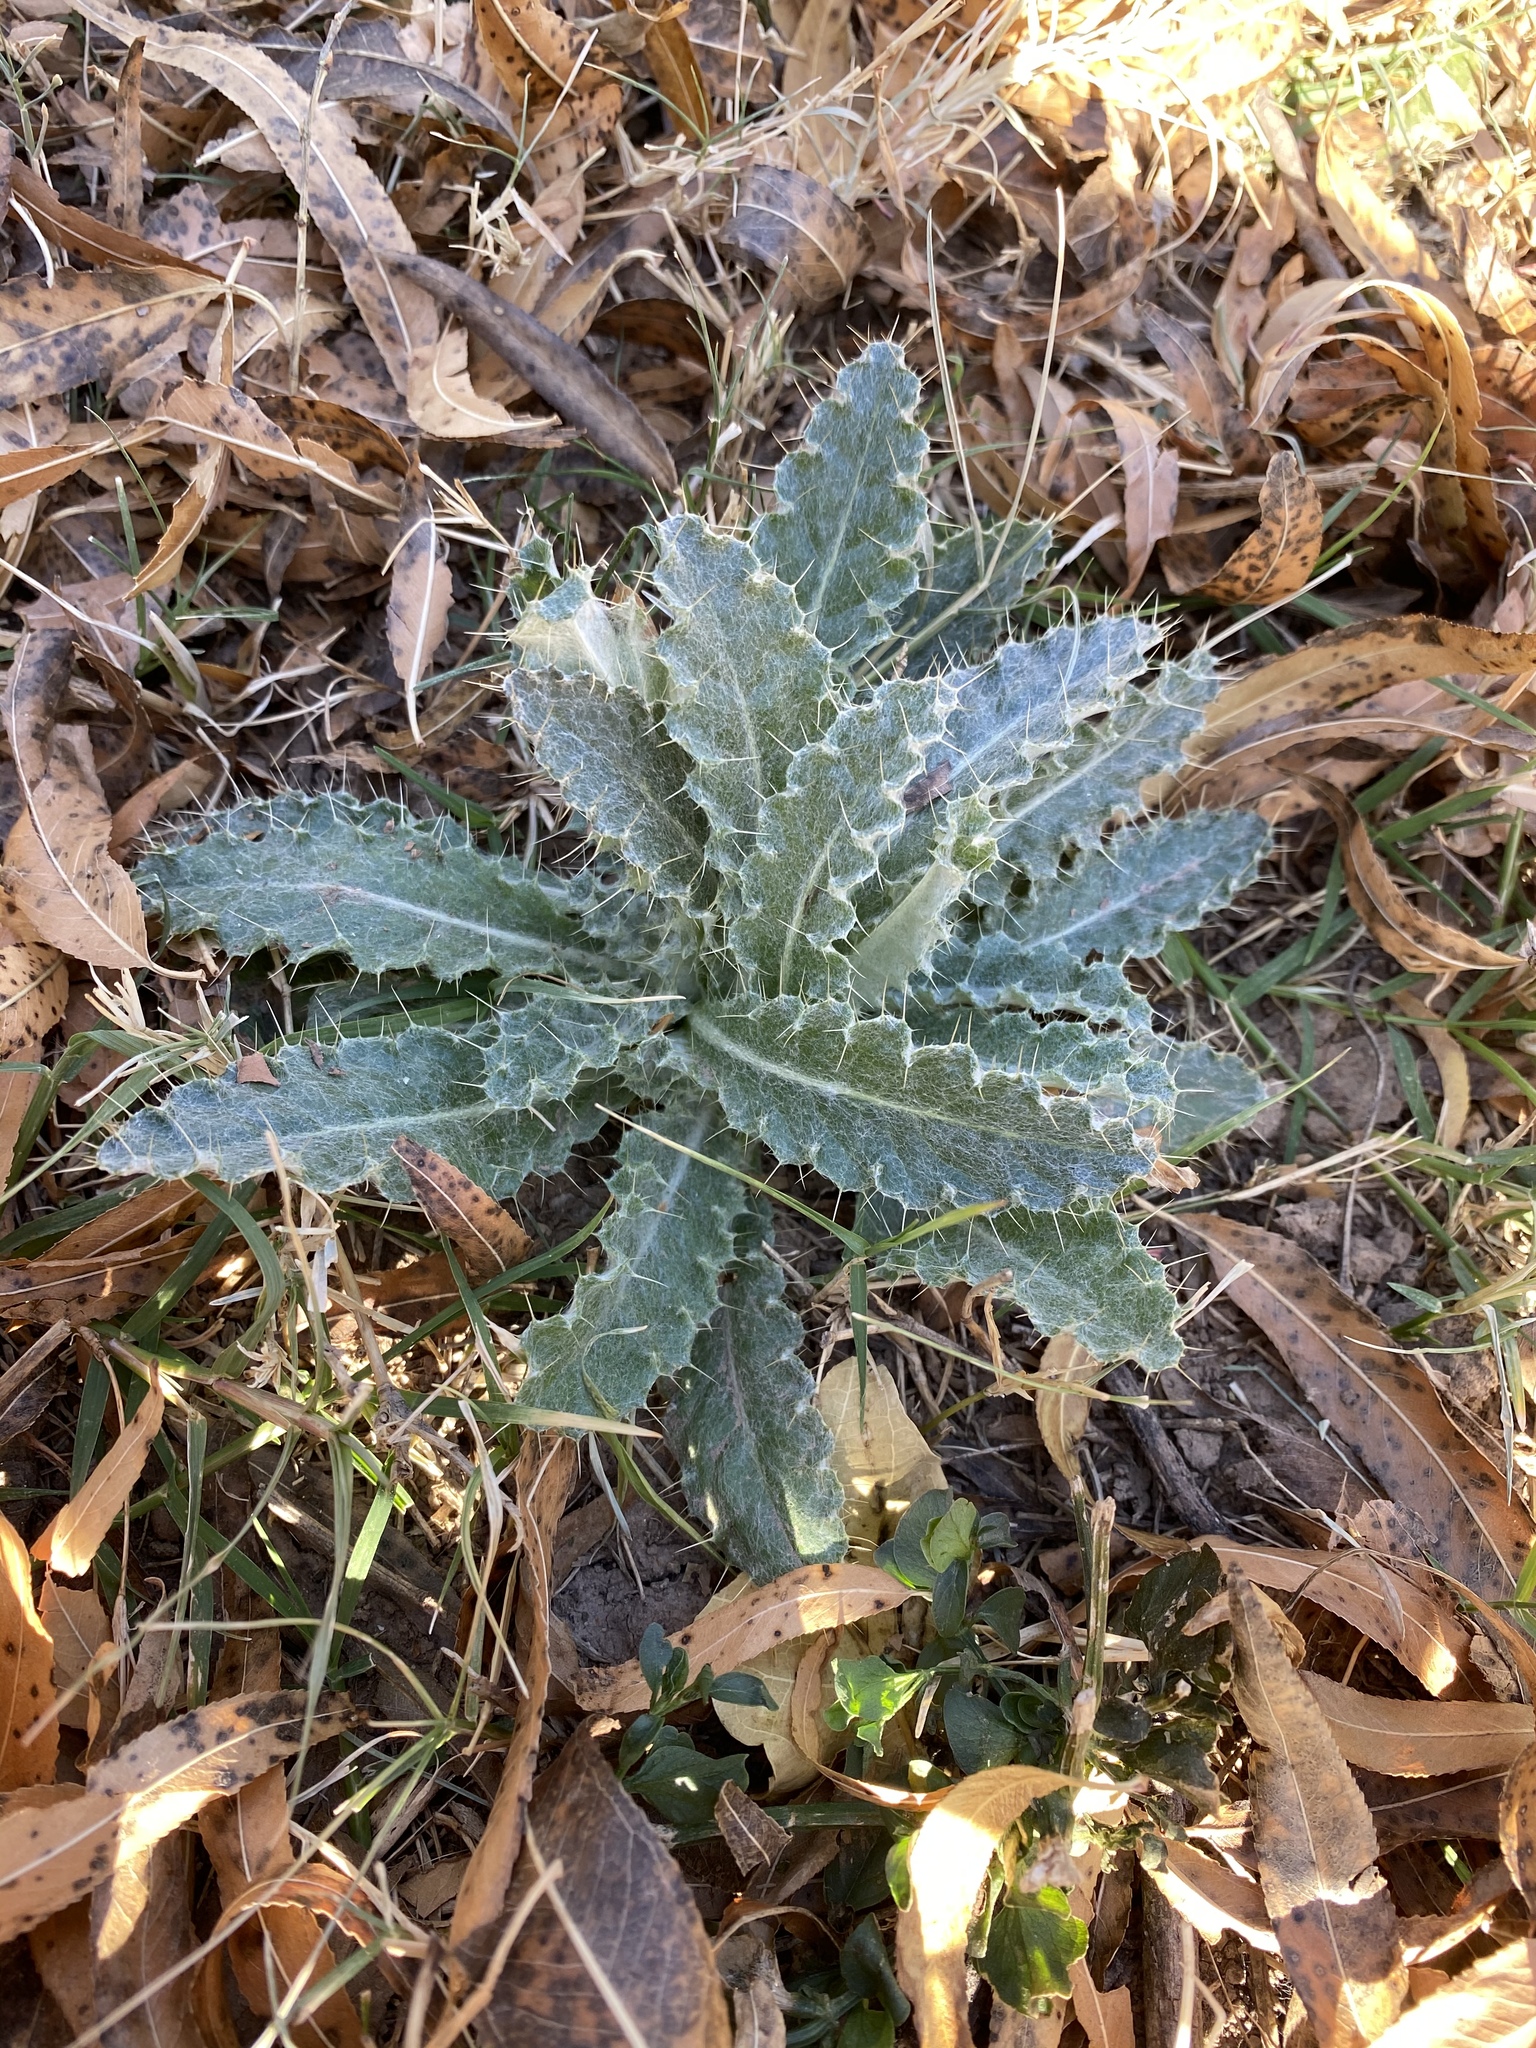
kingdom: Plantae
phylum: Tracheophyta
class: Magnoliopsida
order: Asterales
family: Asteraceae
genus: Cirsium
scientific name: Cirsium neomexicanum
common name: New mexico thistle
